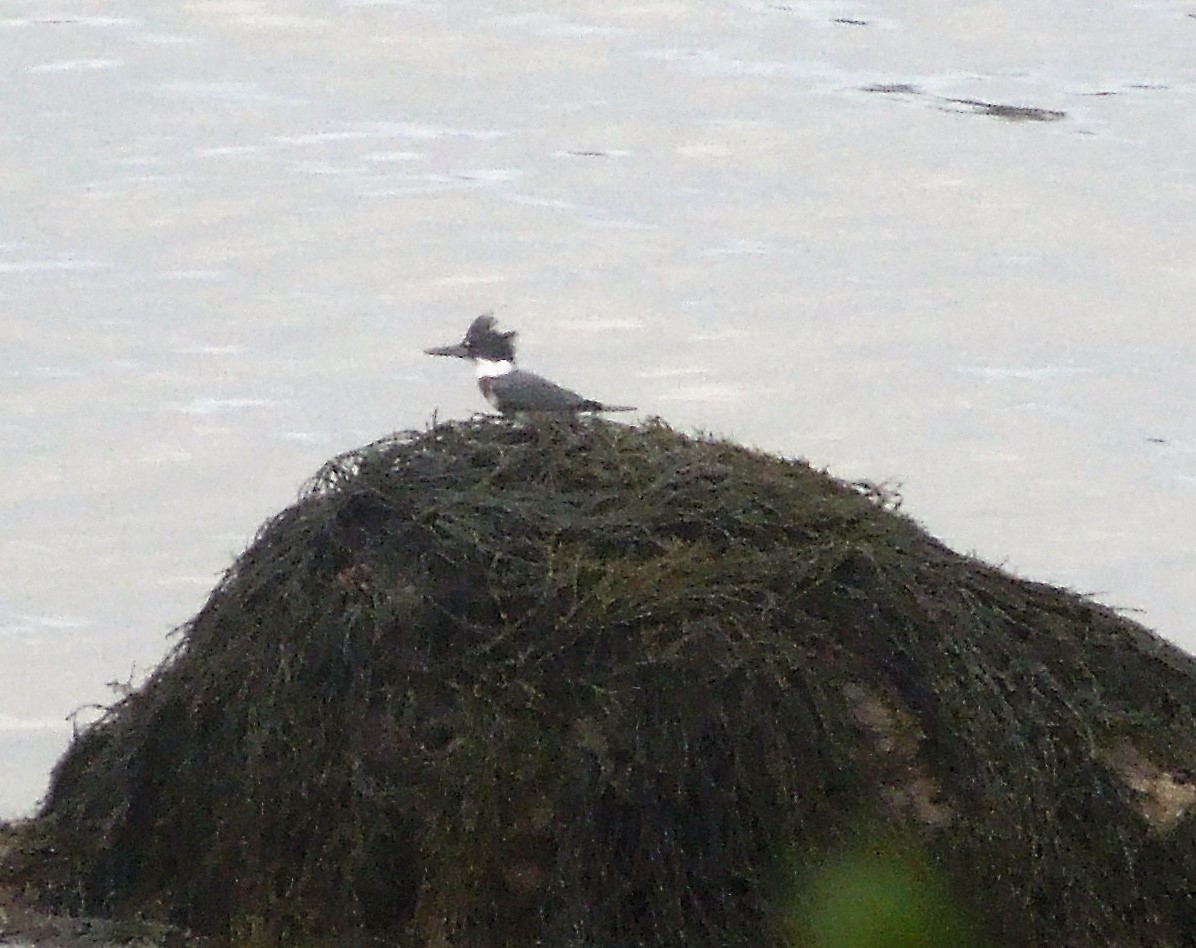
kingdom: Animalia
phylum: Chordata
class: Aves
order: Coraciiformes
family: Alcedinidae
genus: Megaceryle
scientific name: Megaceryle alcyon
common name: Belted kingfisher
